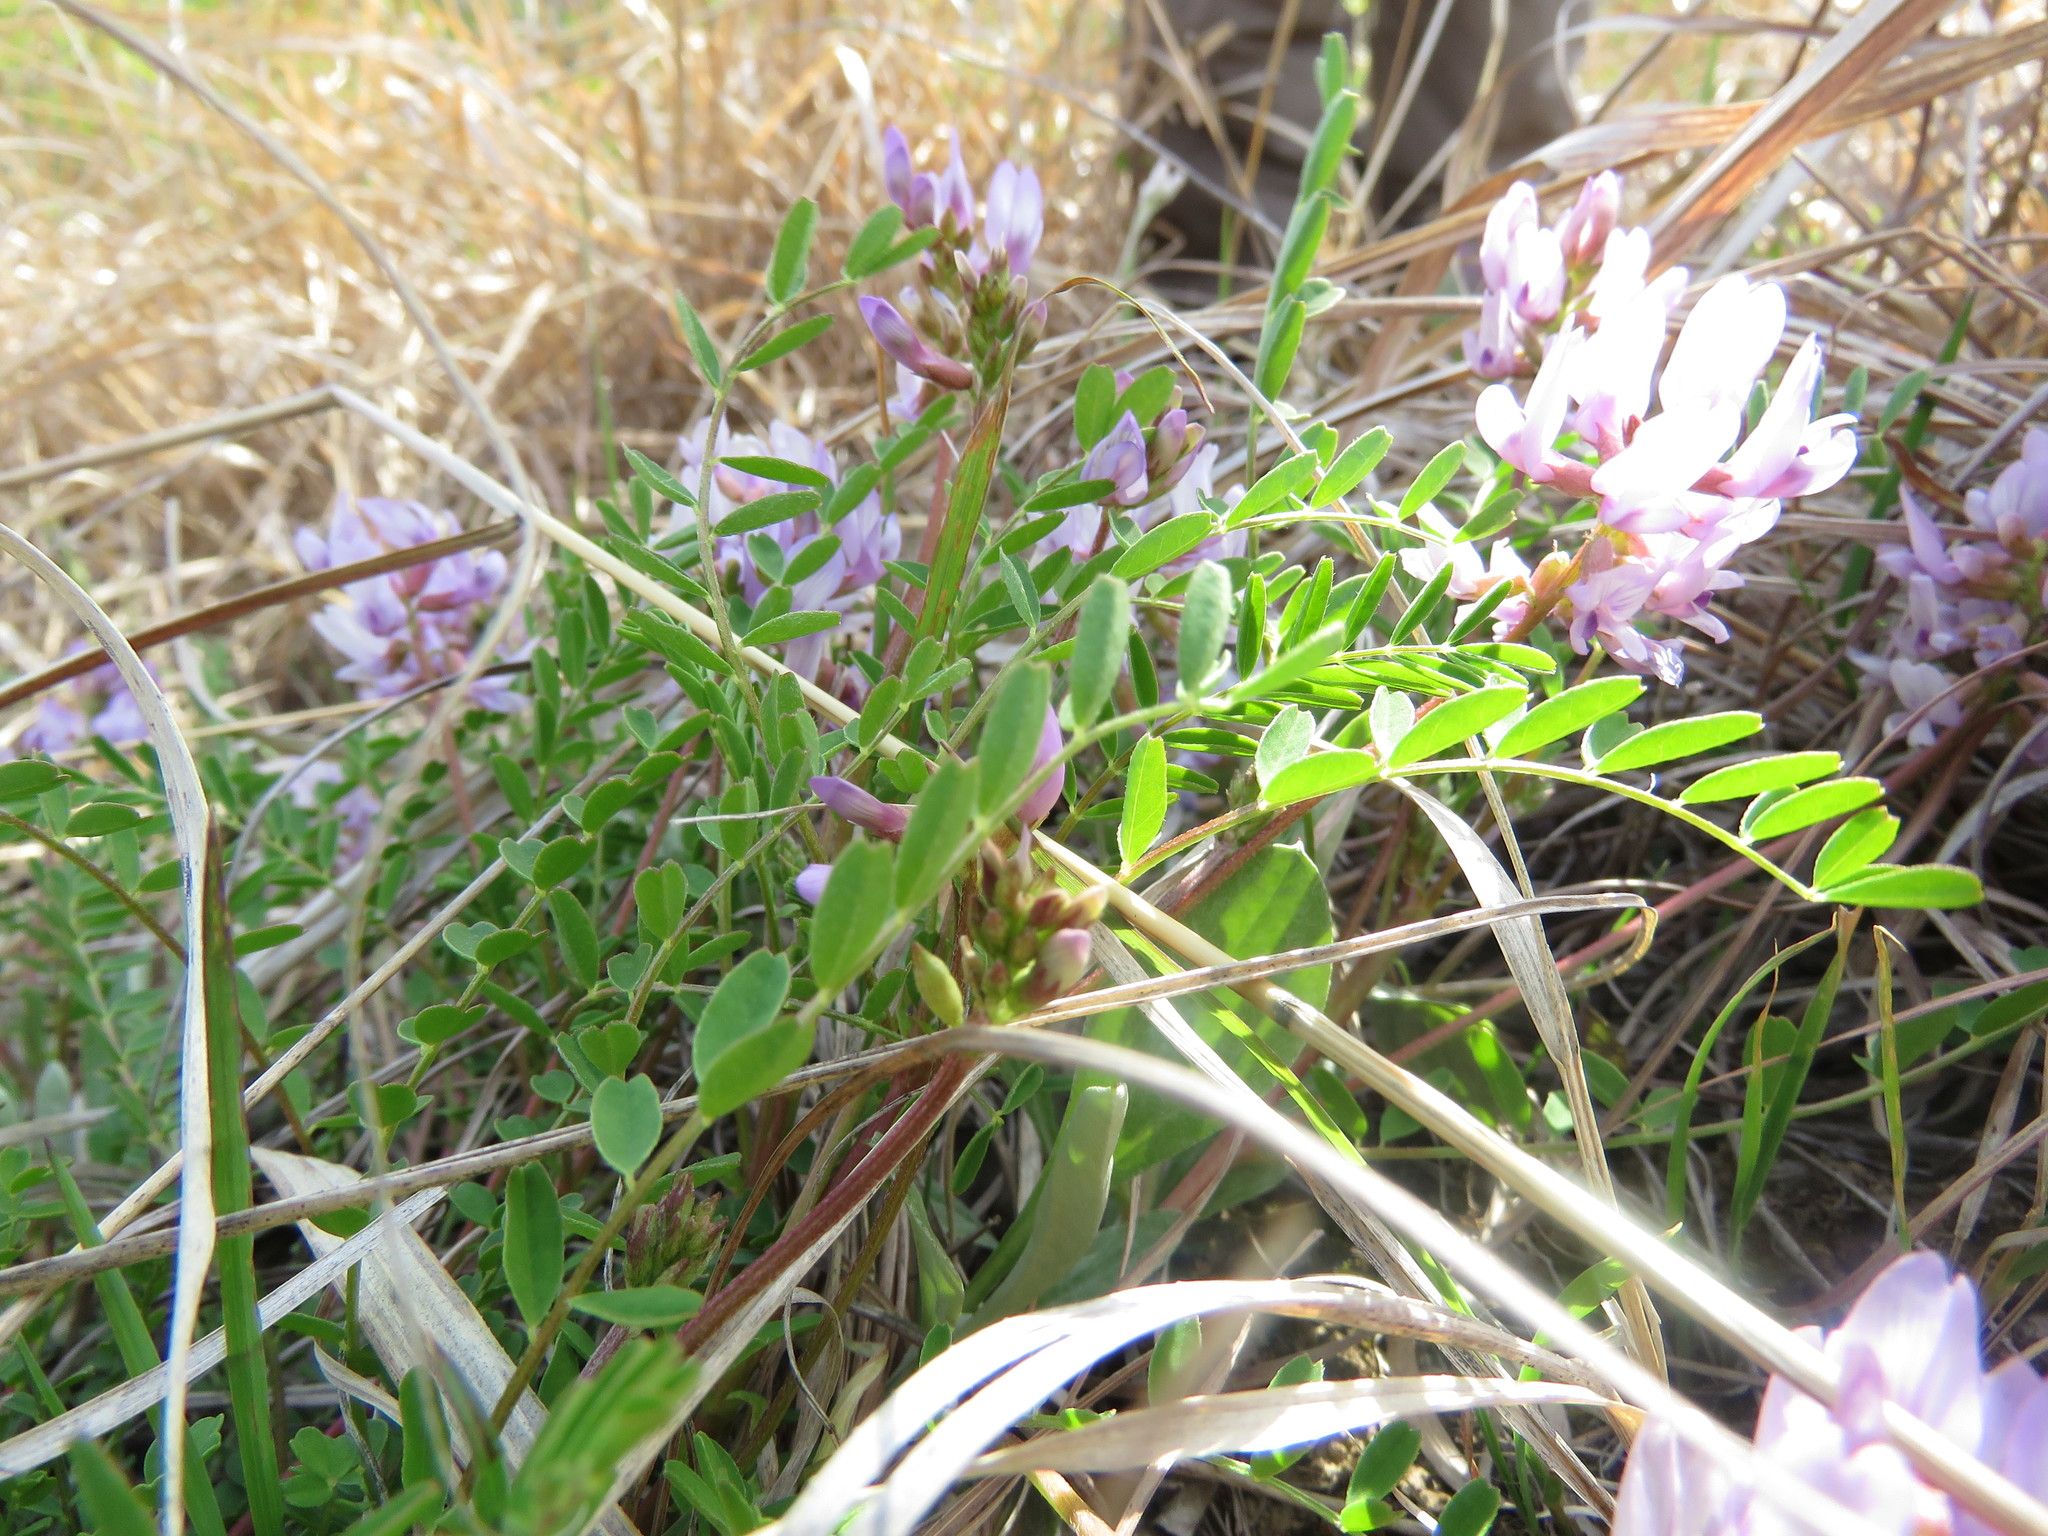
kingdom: Plantae
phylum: Tracheophyta
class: Magnoliopsida
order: Fabales
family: Fabaceae
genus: Astragalus
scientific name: Astragalus distortus
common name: Ozark milk-vetch
